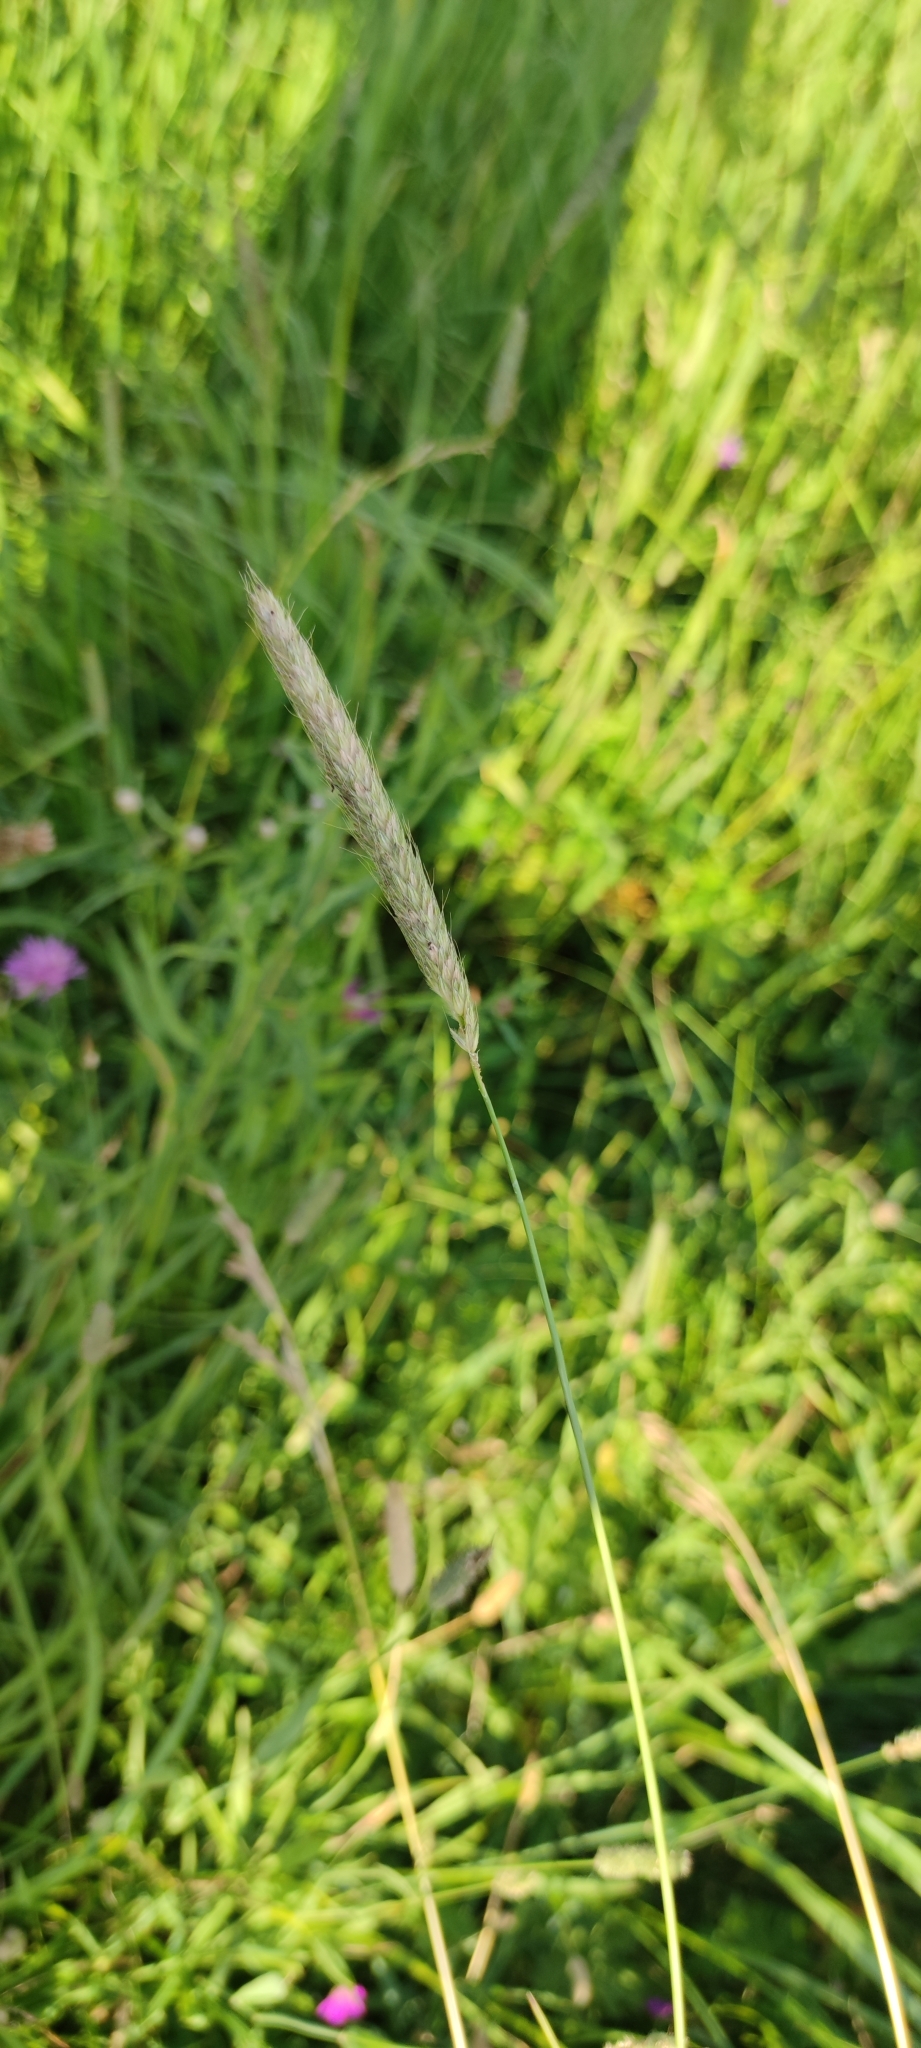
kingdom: Plantae
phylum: Tracheophyta
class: Liliopsida
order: Poales
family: Poaceae
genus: Alopecurus
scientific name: Alopecurus pratensis
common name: Meadow foxtail
